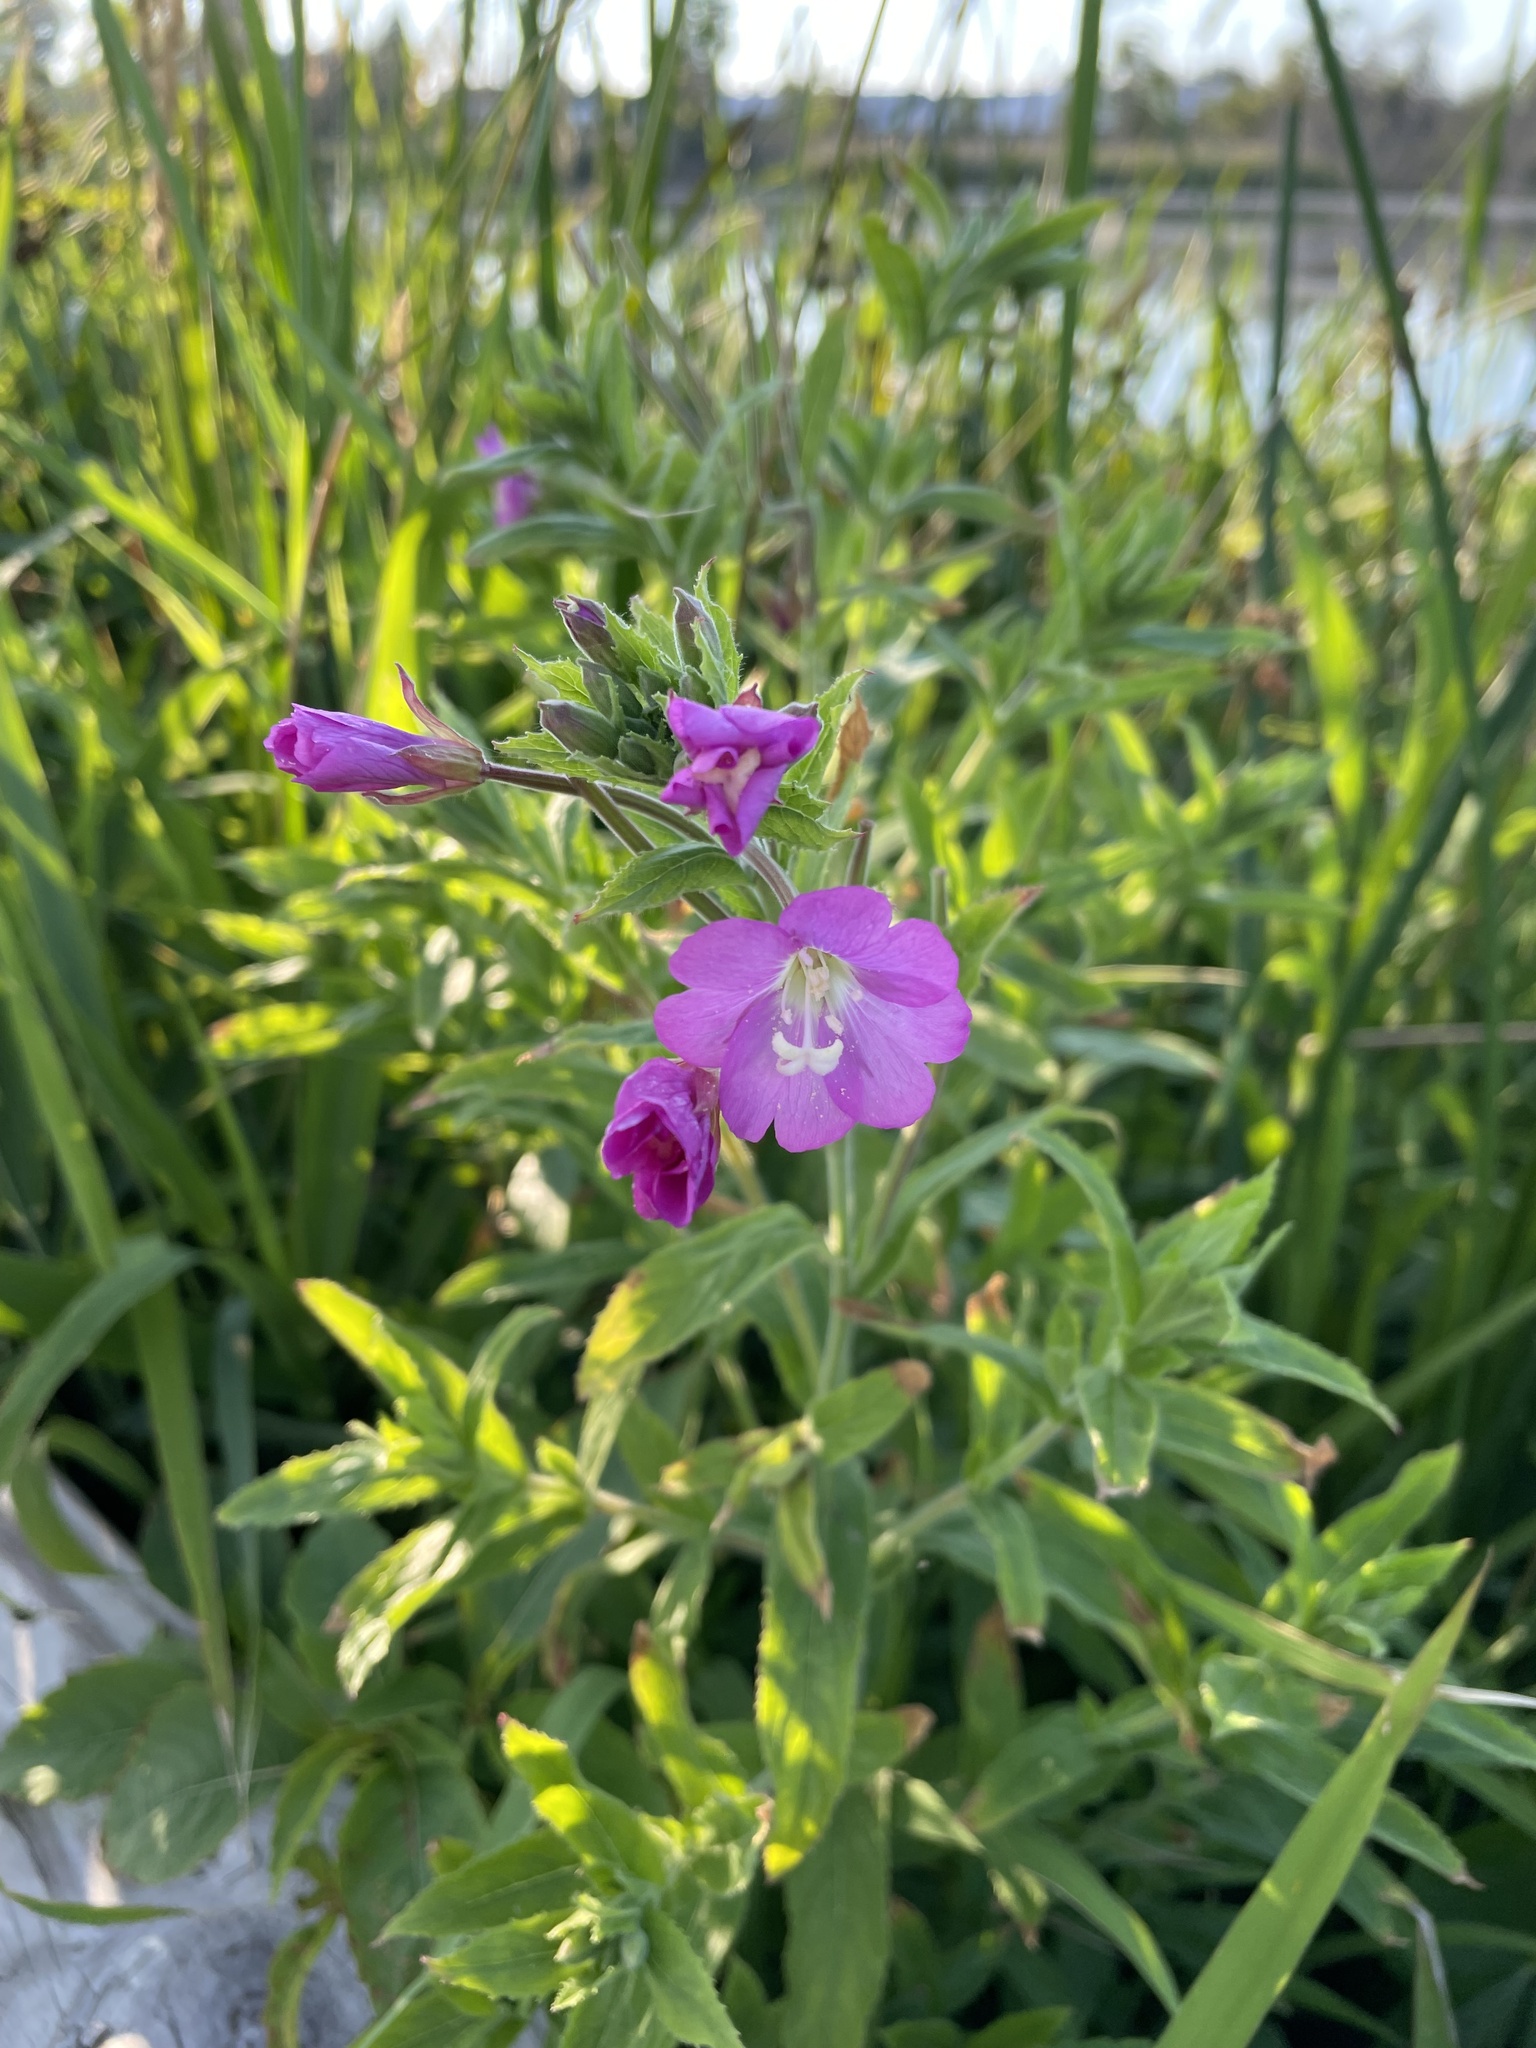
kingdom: Plantae
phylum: Tracheophyta
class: Magnoliopsida
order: Myrtales
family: Onagraceae
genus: Epilobium
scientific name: Epilobium hirsutum
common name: Great willowherb
